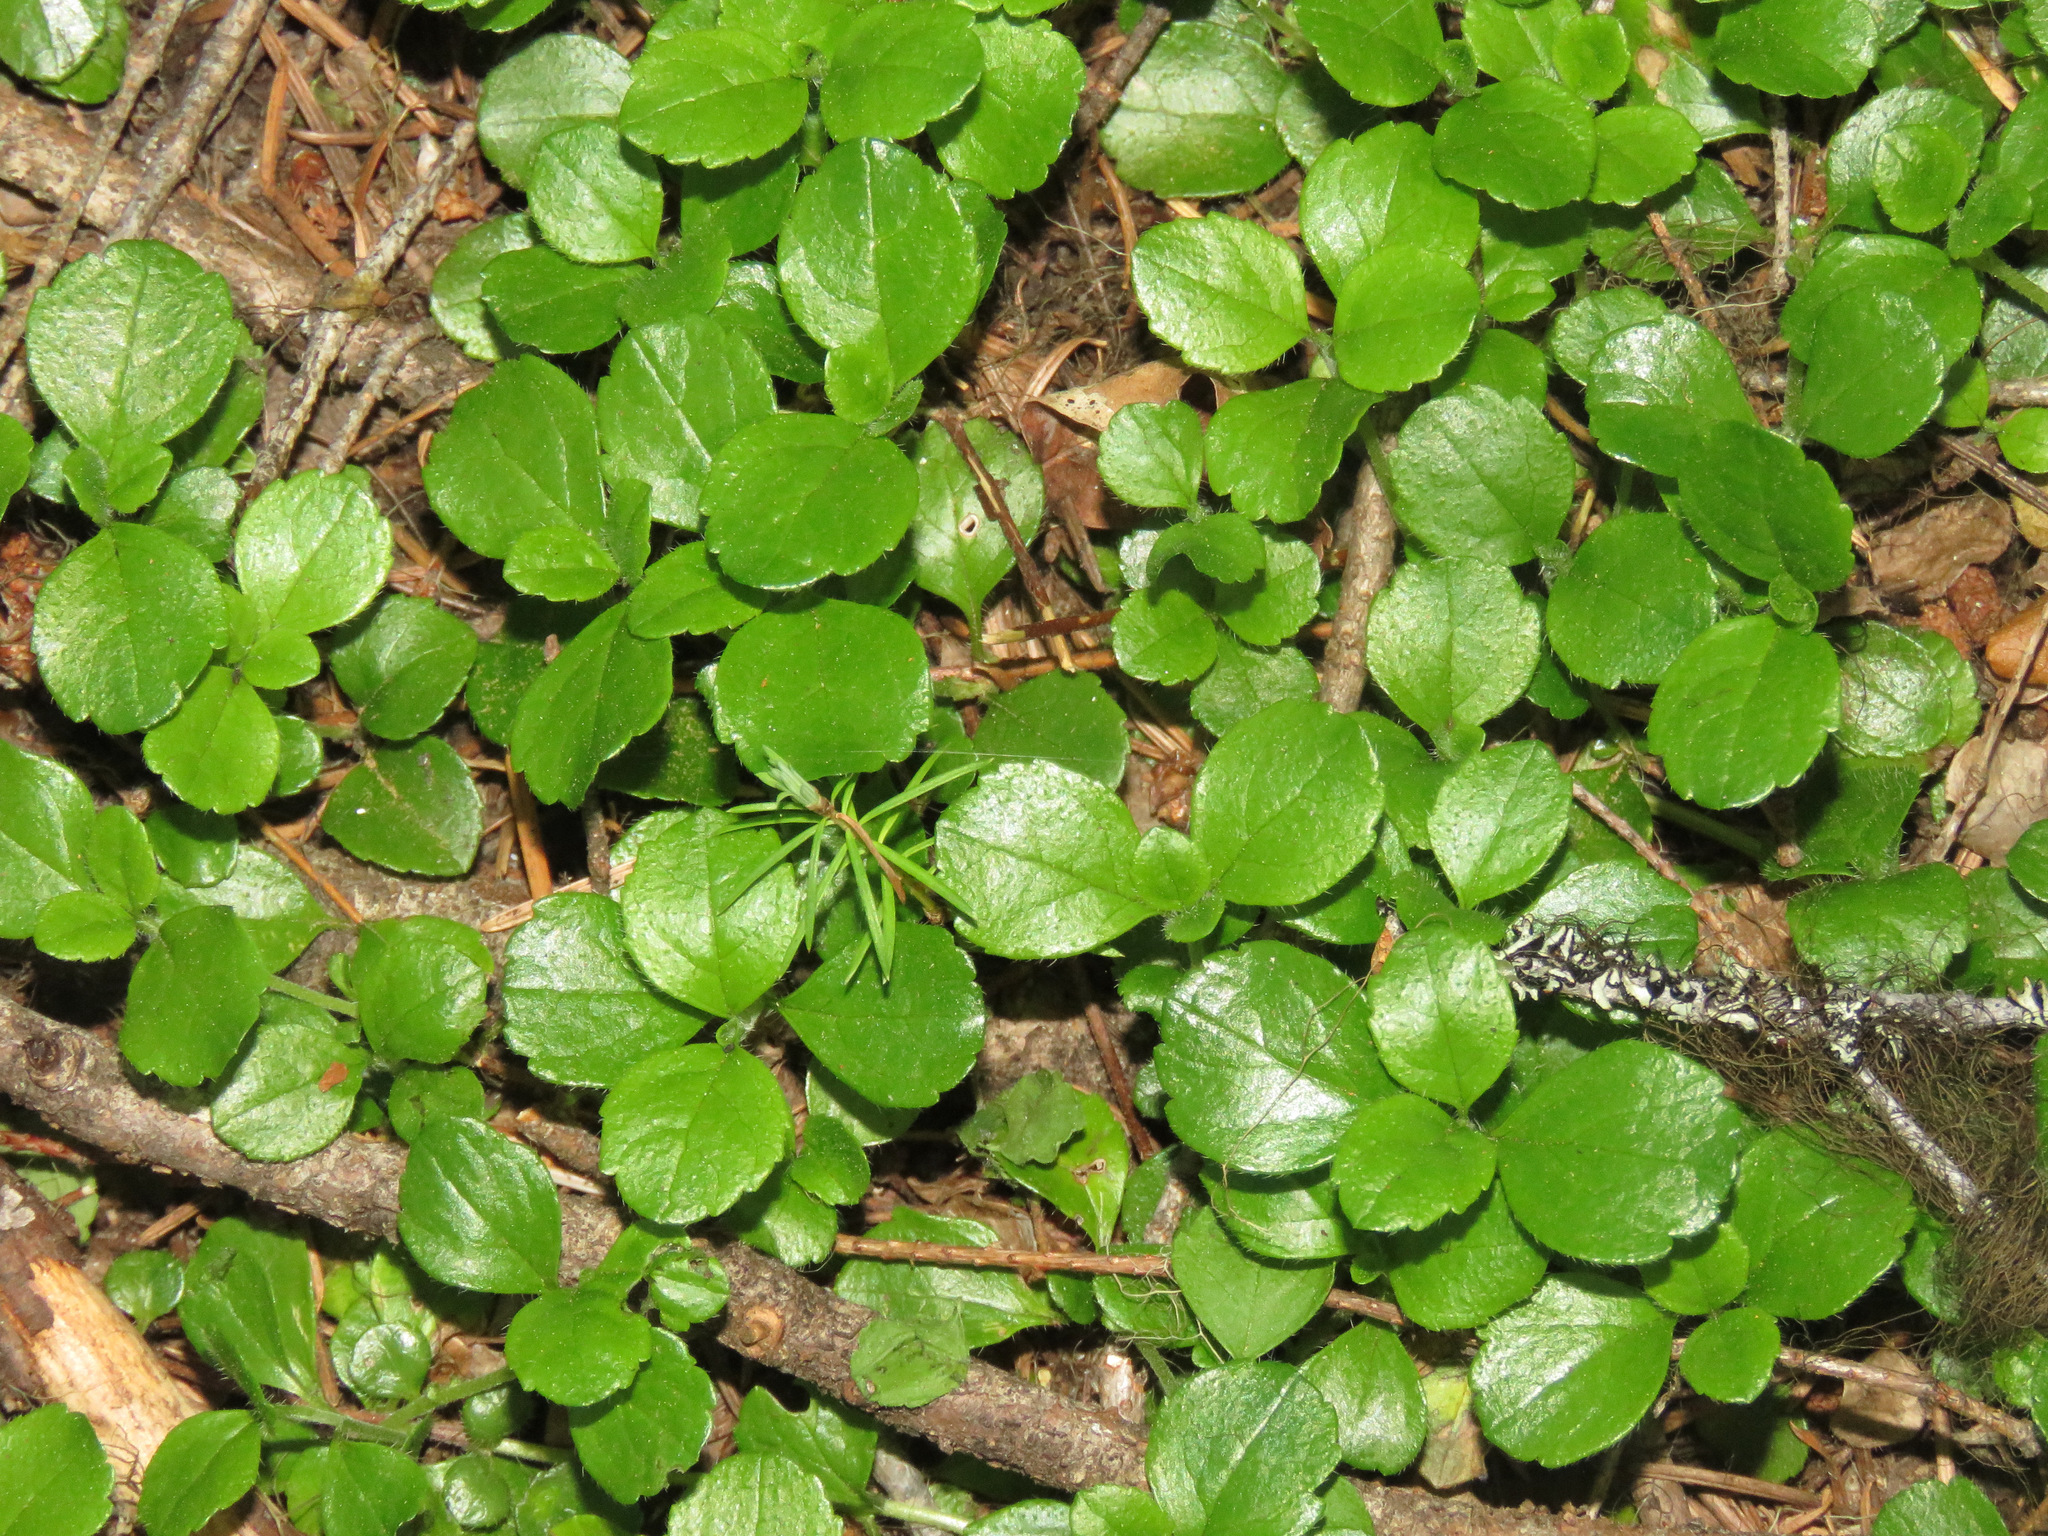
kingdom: Plantae
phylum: Tracheophyta
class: Magnoliopsida
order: Dipsacales
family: Caprifoliaceae
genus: Linnaea
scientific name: Linnaea borealis
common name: Twinflower
